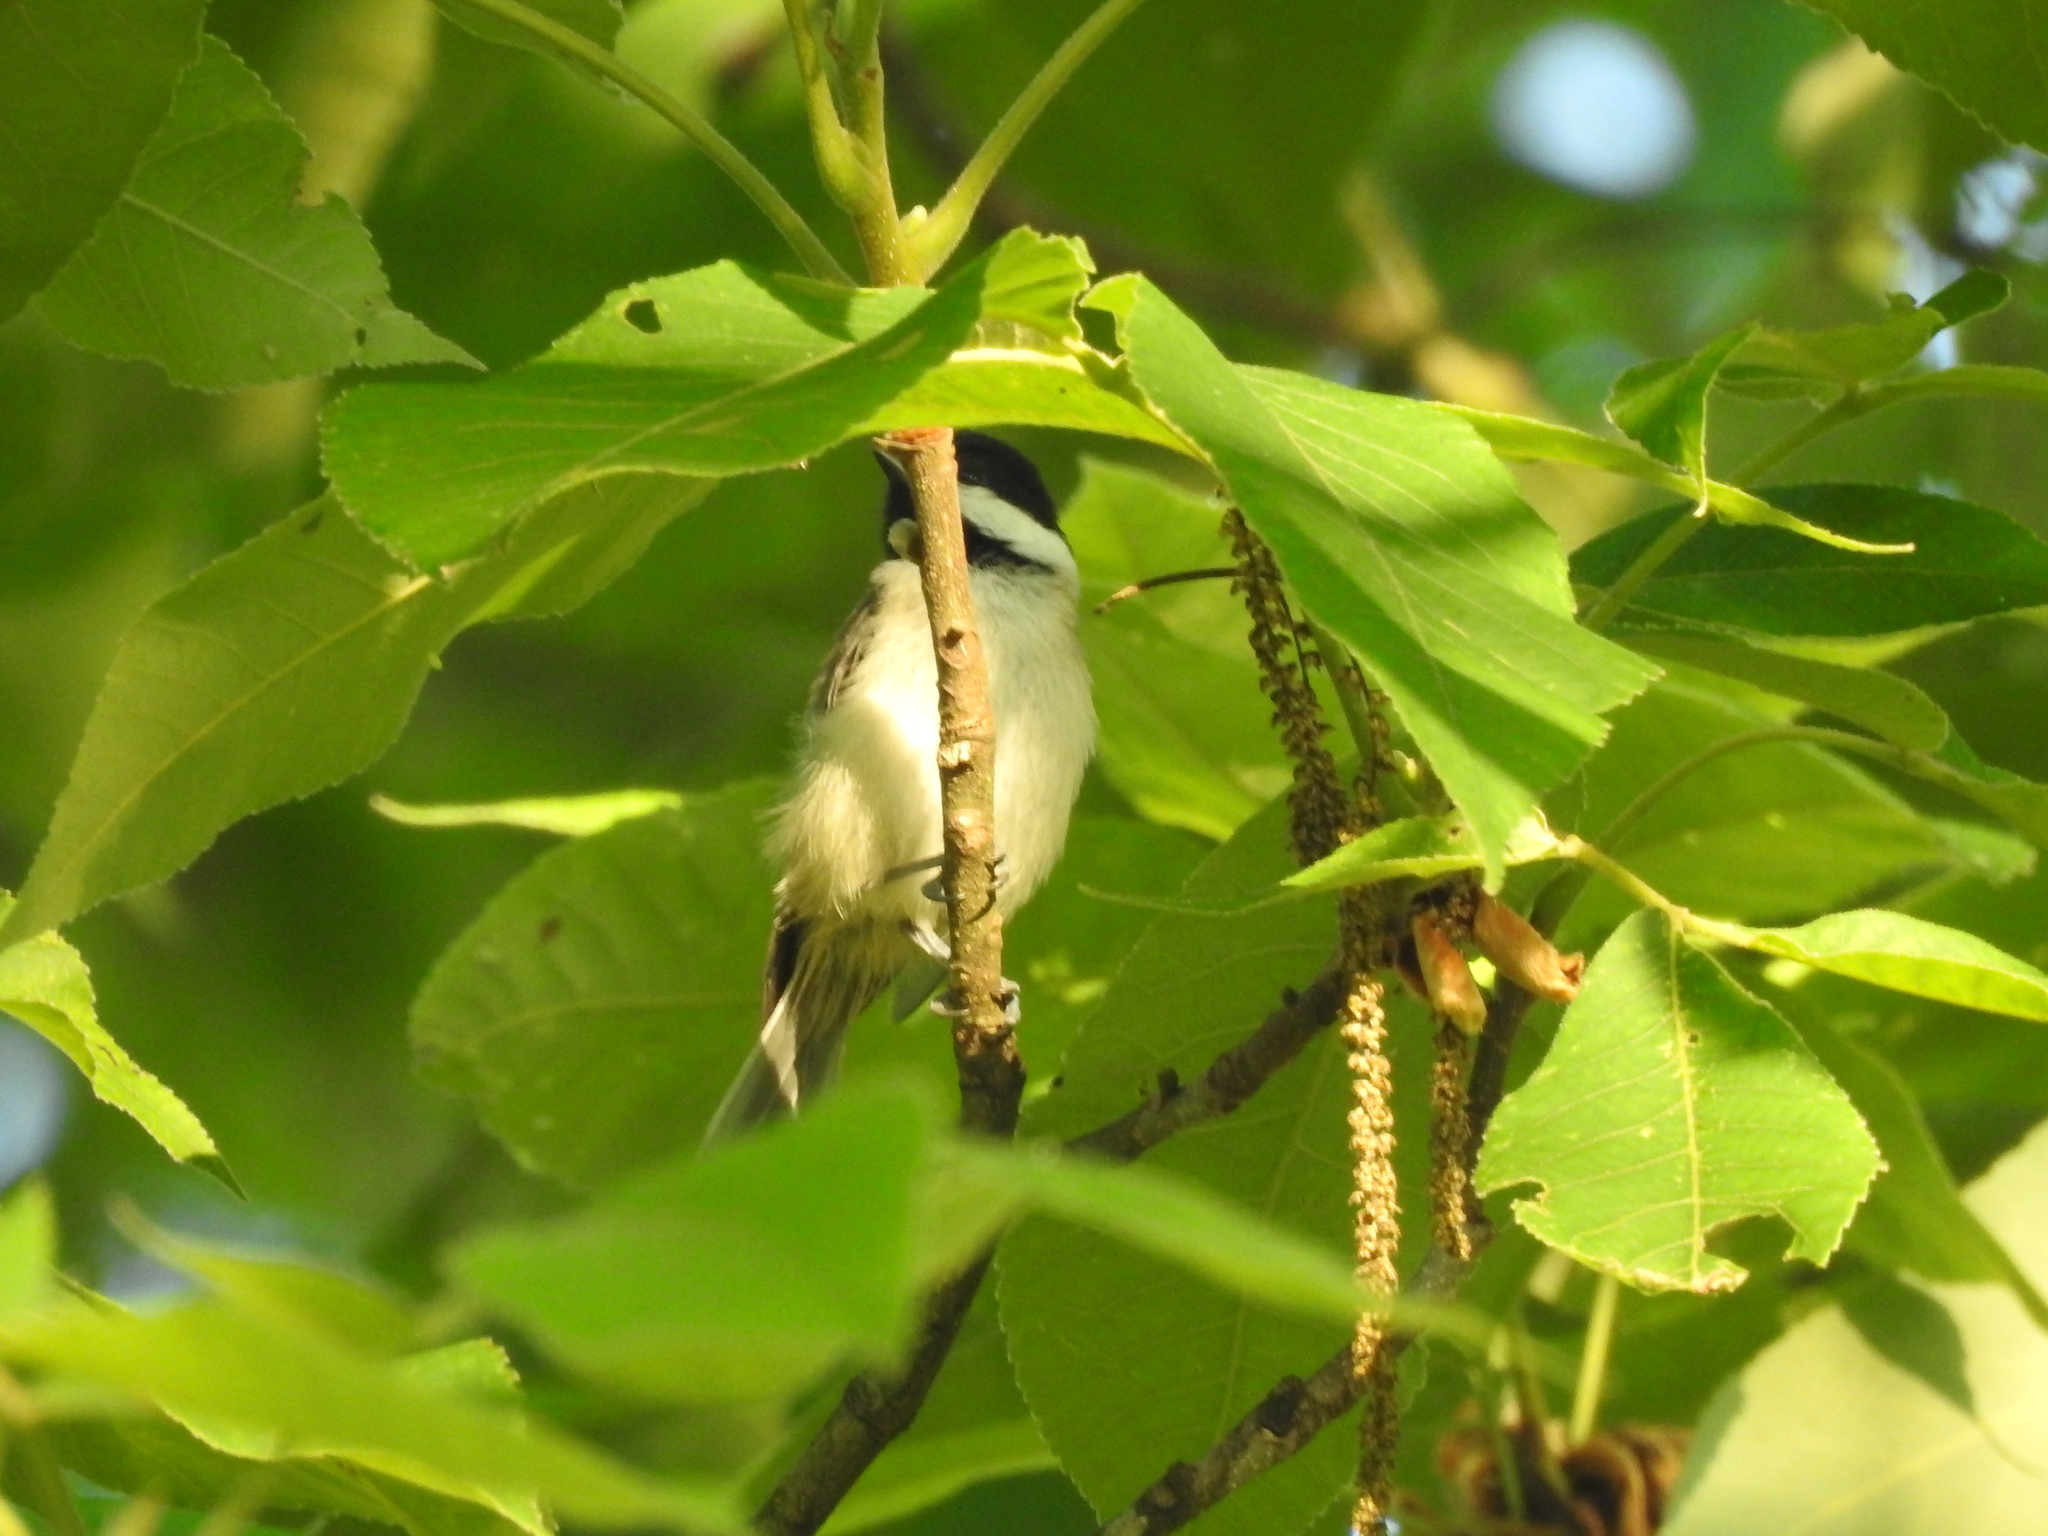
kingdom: Animalia
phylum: Chordata
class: Aves
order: Passeriformes
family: Paridae
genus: Poecile
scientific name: Poecile carolinensis
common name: Carolina chickadee
